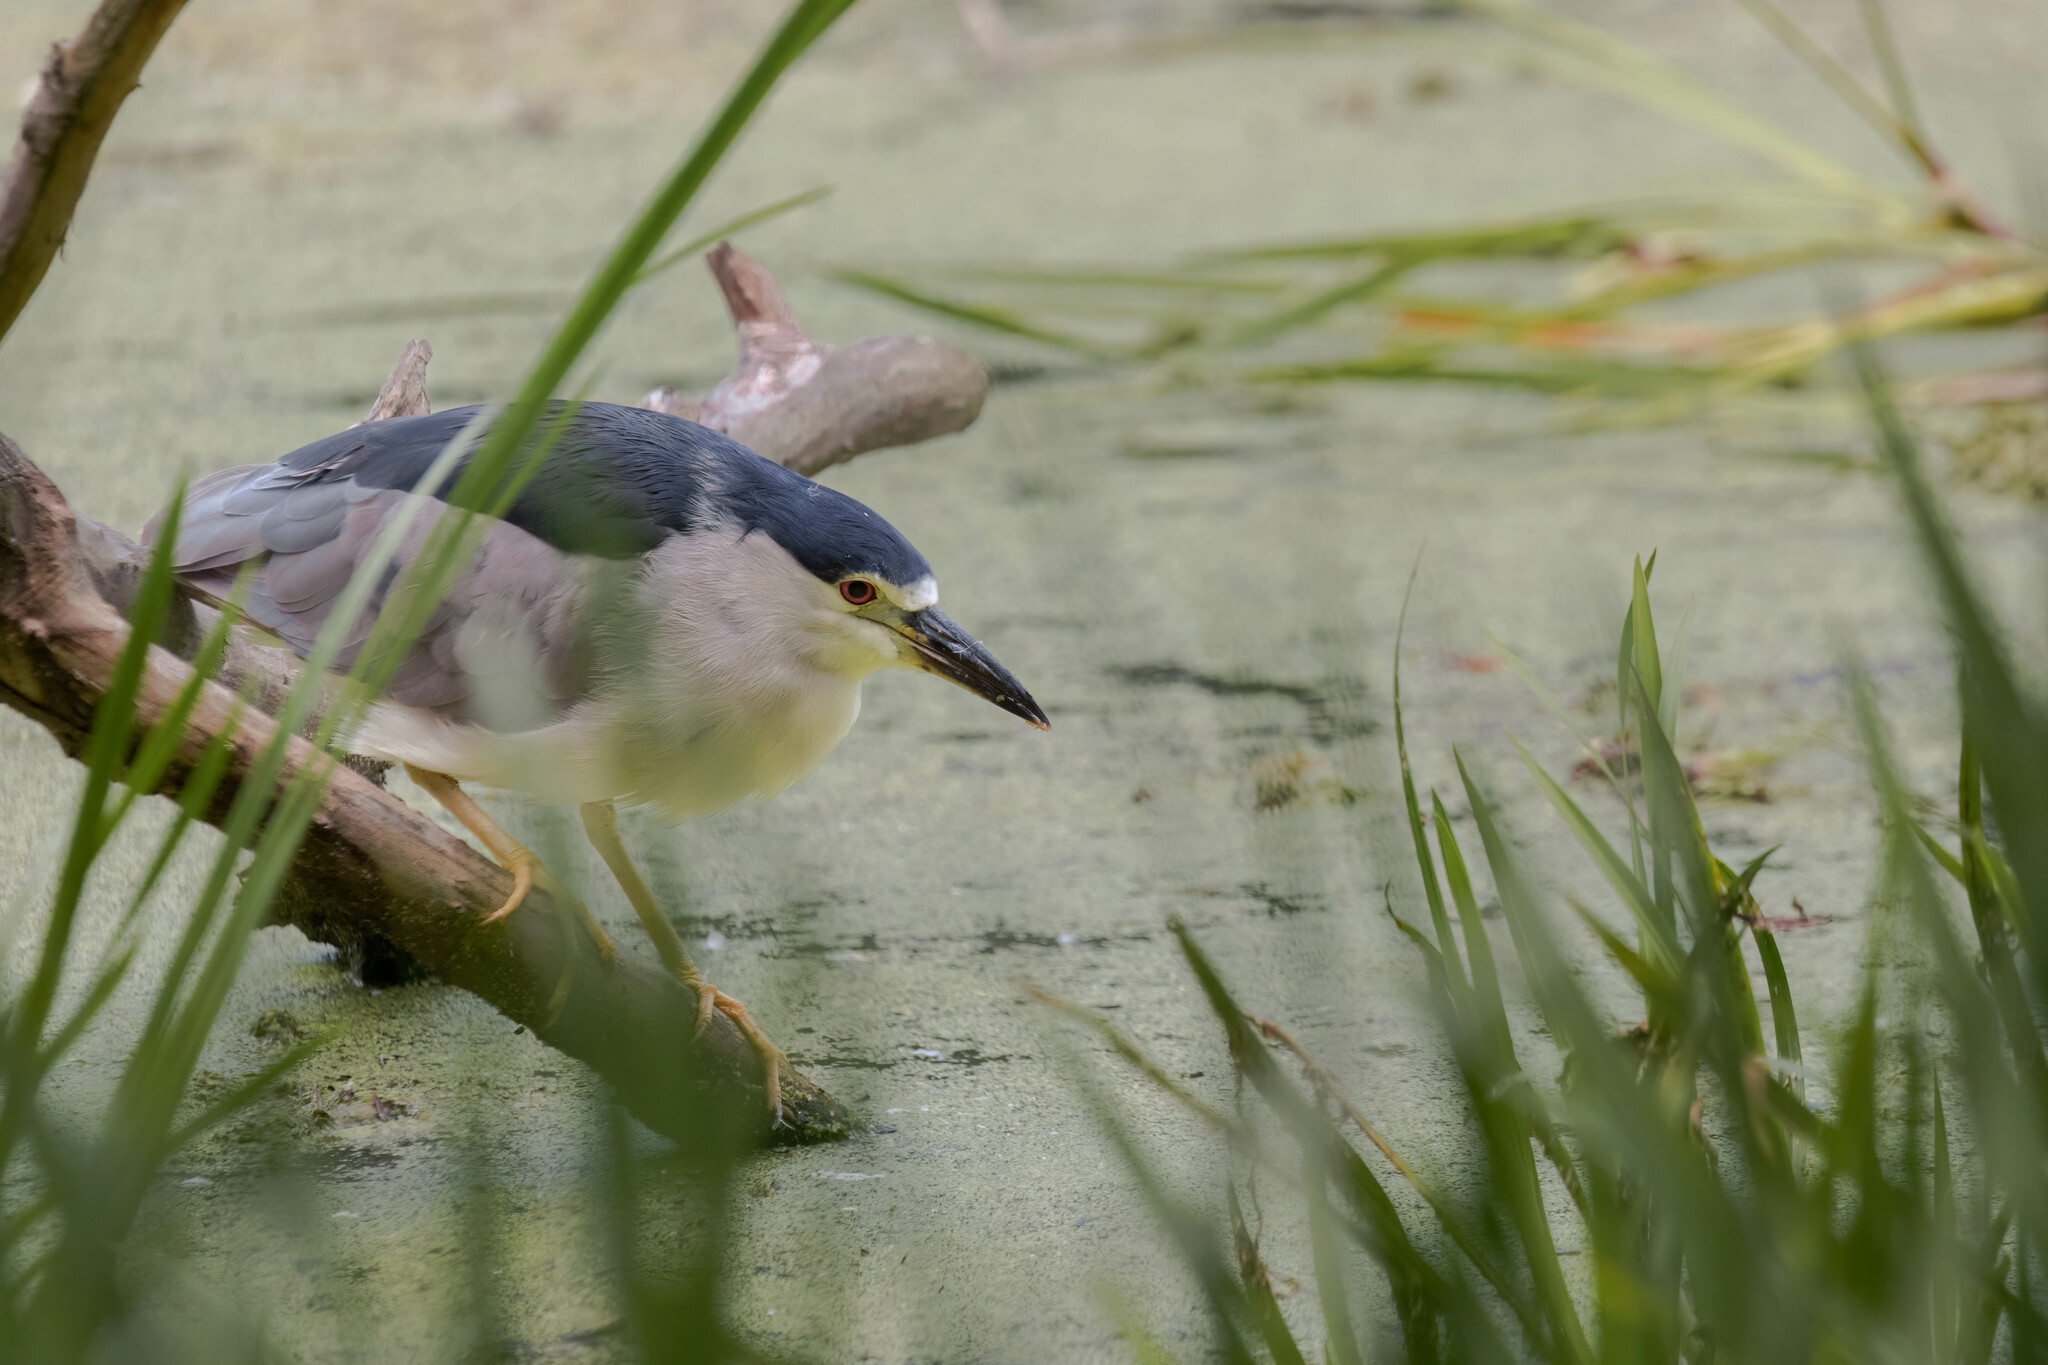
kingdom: Animalia
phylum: Chordata
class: Aves
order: Pelecaniformes
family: Ardeidae
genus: Nycticorax
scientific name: Nycticorax nycticorax
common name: Black-crowned night heron
